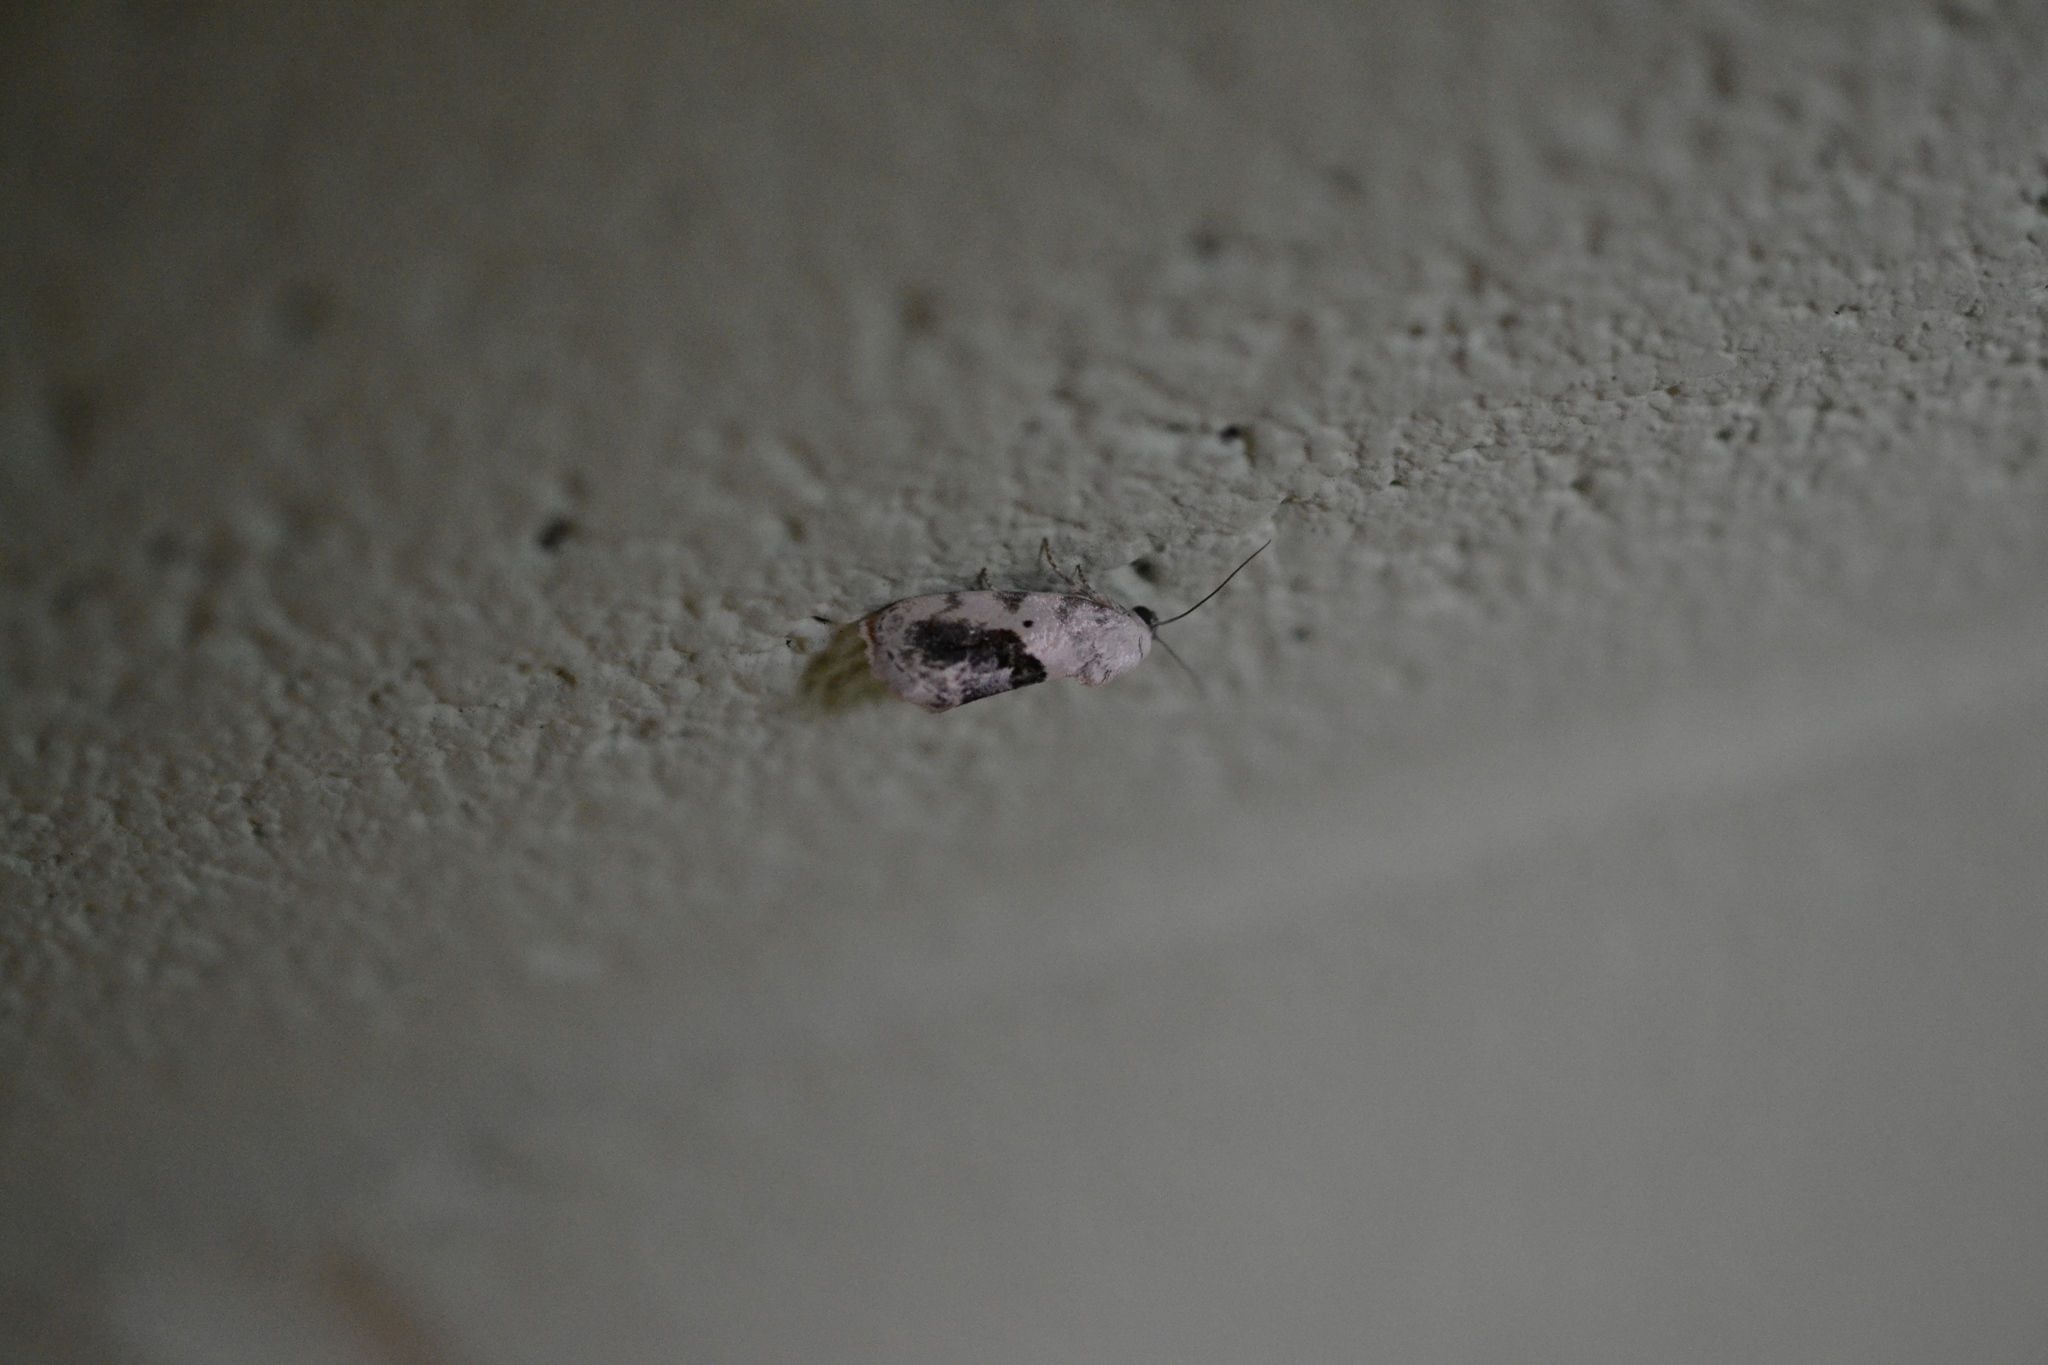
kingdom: Animalia
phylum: Arthropoda
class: Insecta
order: Lepidoptera
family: Noctuidae
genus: Acontia
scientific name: Acontia erastrioides
